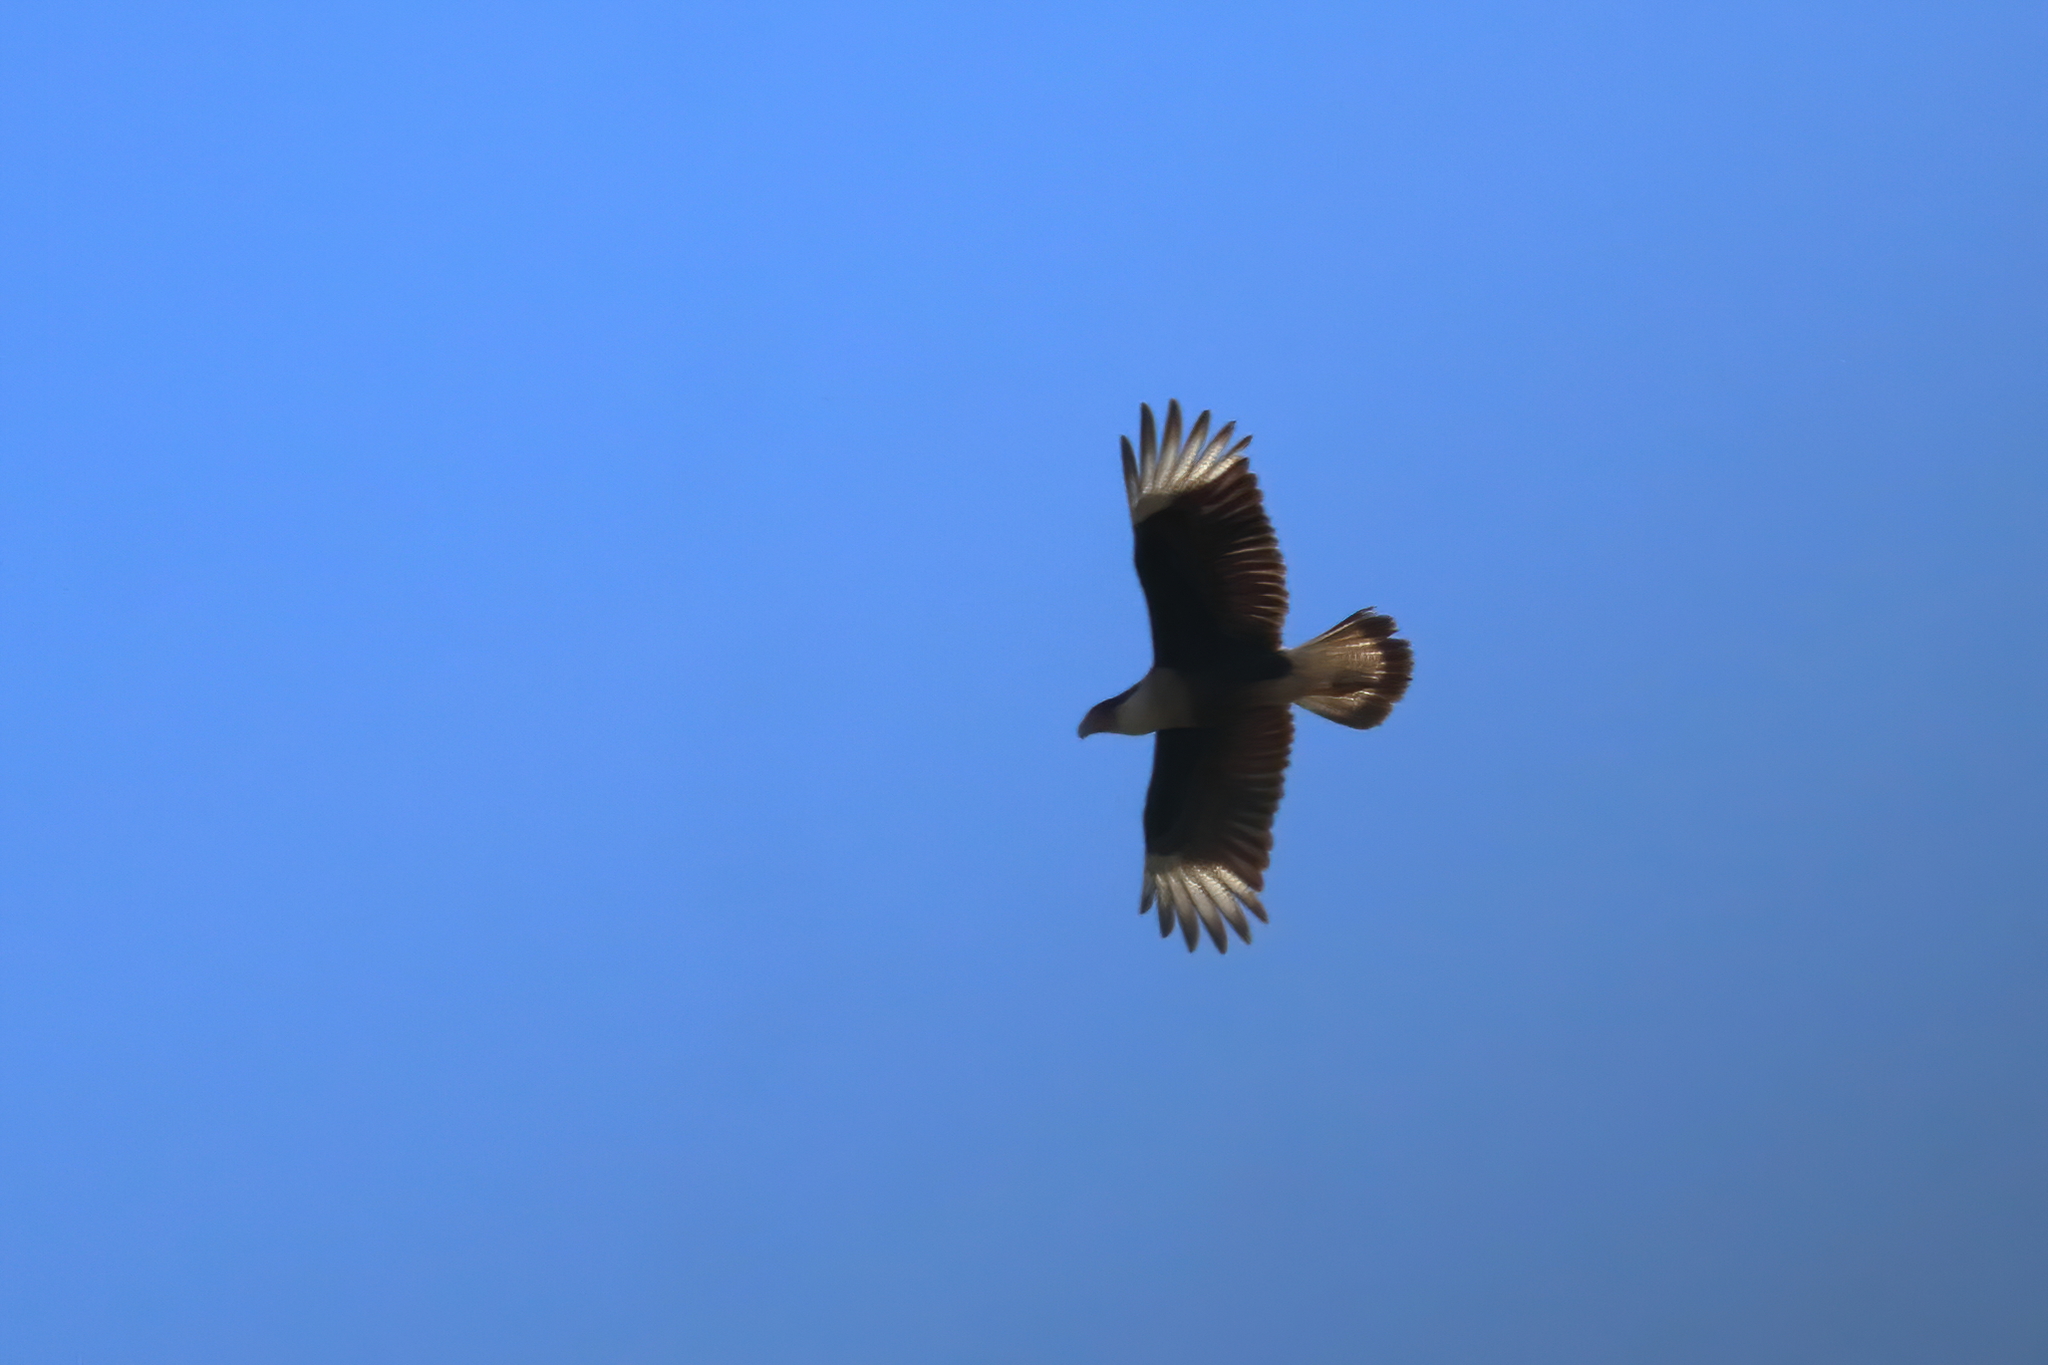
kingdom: Animalia
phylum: Chordata
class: Aves
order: Falconiformes
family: Falconidae
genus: Caracara
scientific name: Caracara plancus
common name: Southern caracara
